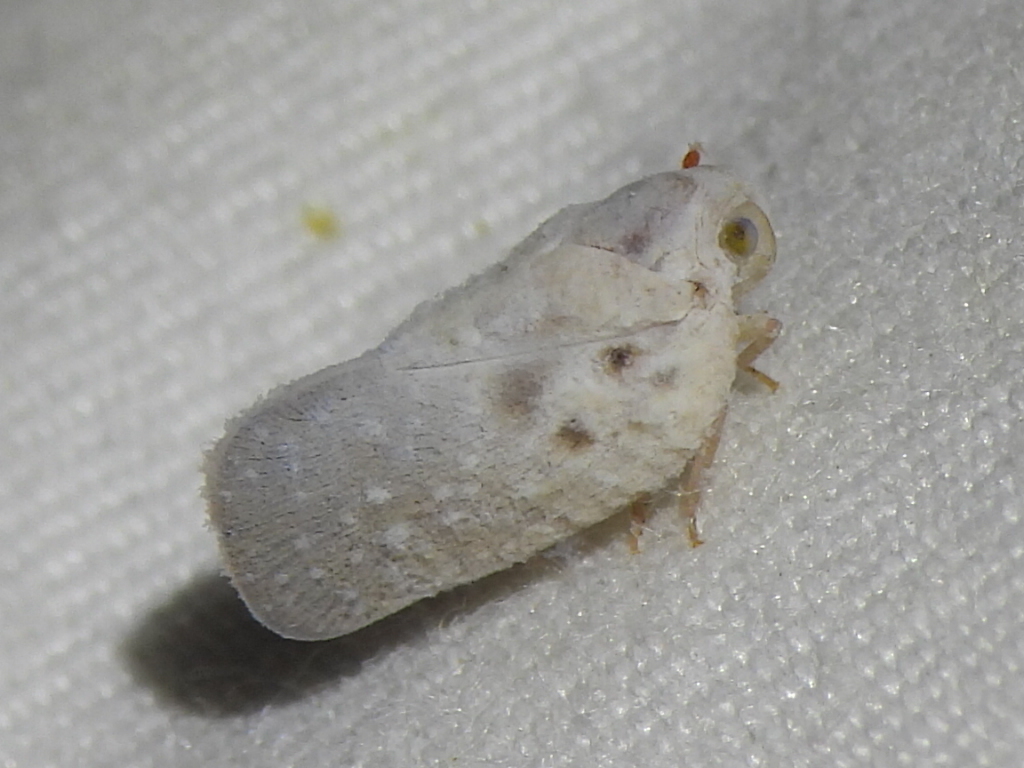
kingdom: Animalia
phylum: Arthropoda
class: Insecta
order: Hemiptera
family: Flatidae
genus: Metcalfa
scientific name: Metcalfa pruinosa
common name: Citrus flatid planthopper
